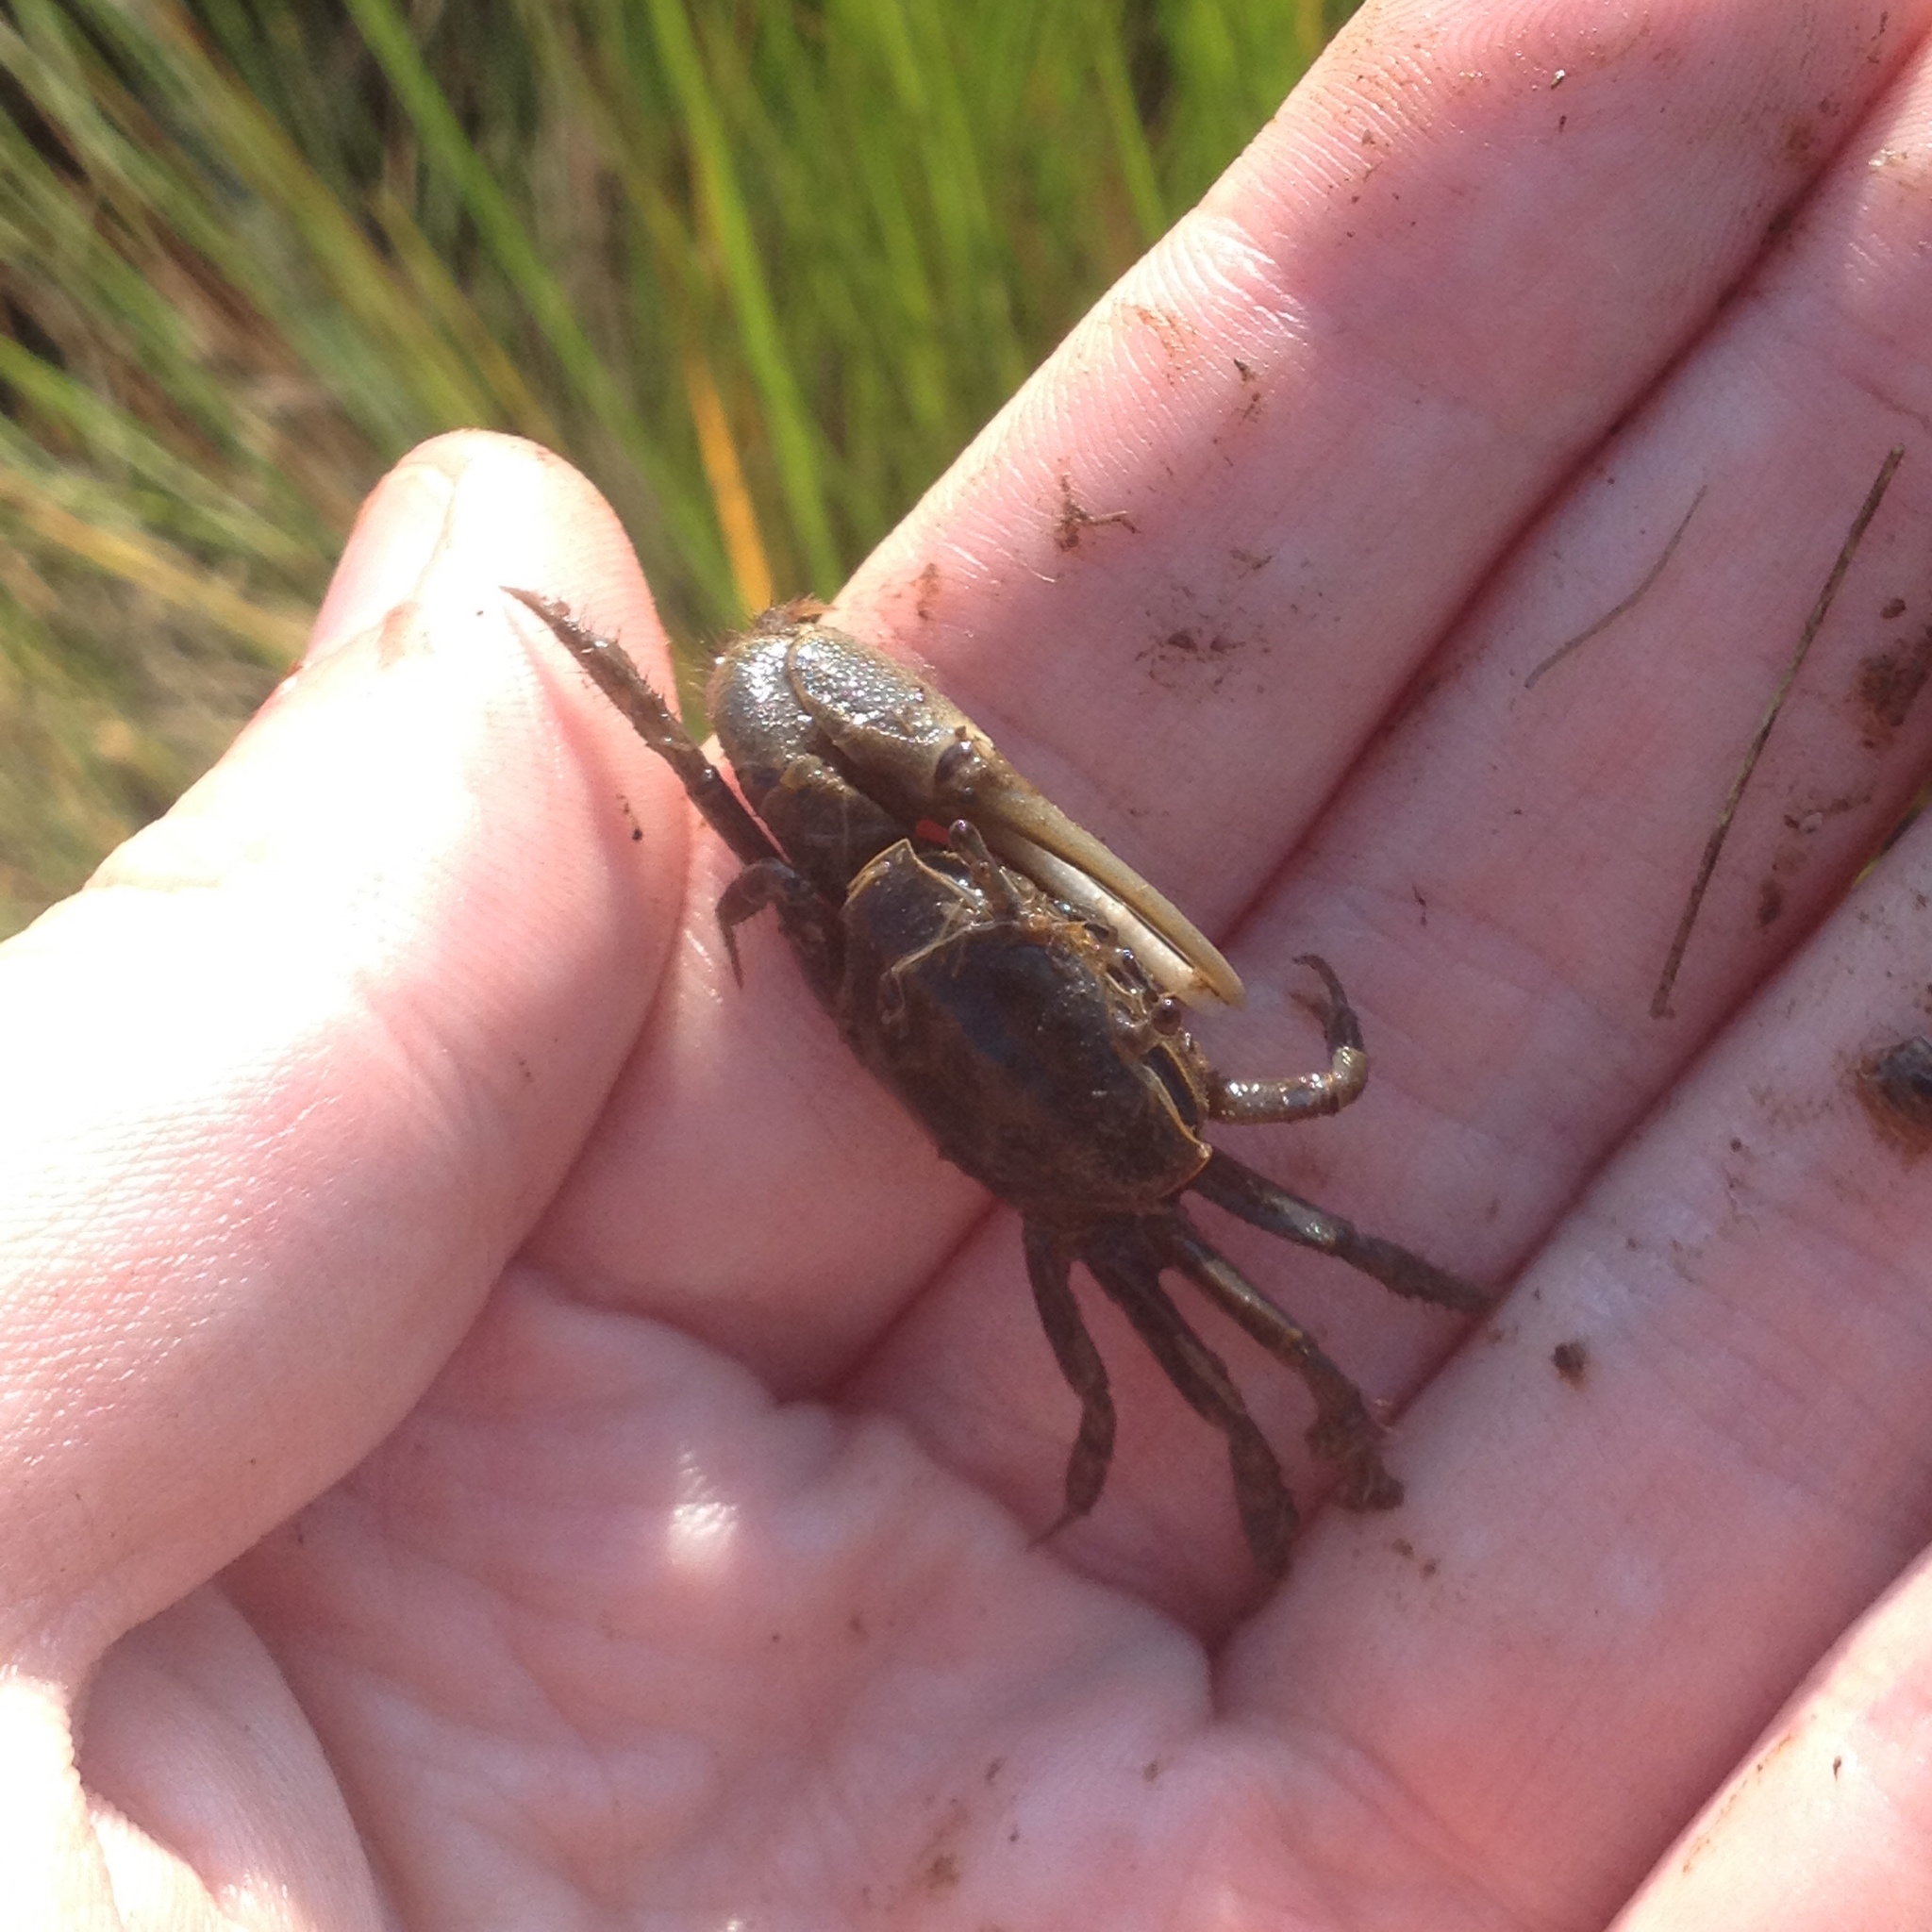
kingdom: Animalia
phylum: Arthropoda
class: Malacostraca
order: Decapoda
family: Ocypodidae
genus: Minuca
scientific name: Minuca pugnax
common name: Mud fiddler crab
